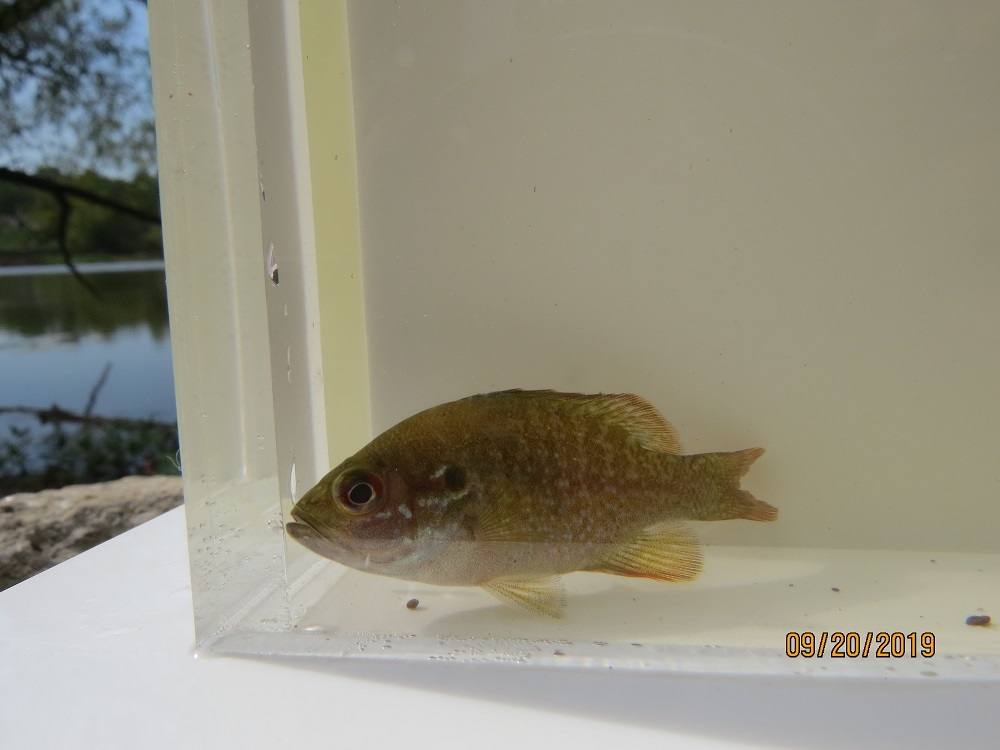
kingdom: Animalia
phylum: Chordata
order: Perciformes
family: Centrarchidae
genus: Lepomis
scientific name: Lepomis cyanellus
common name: Green sunfish
